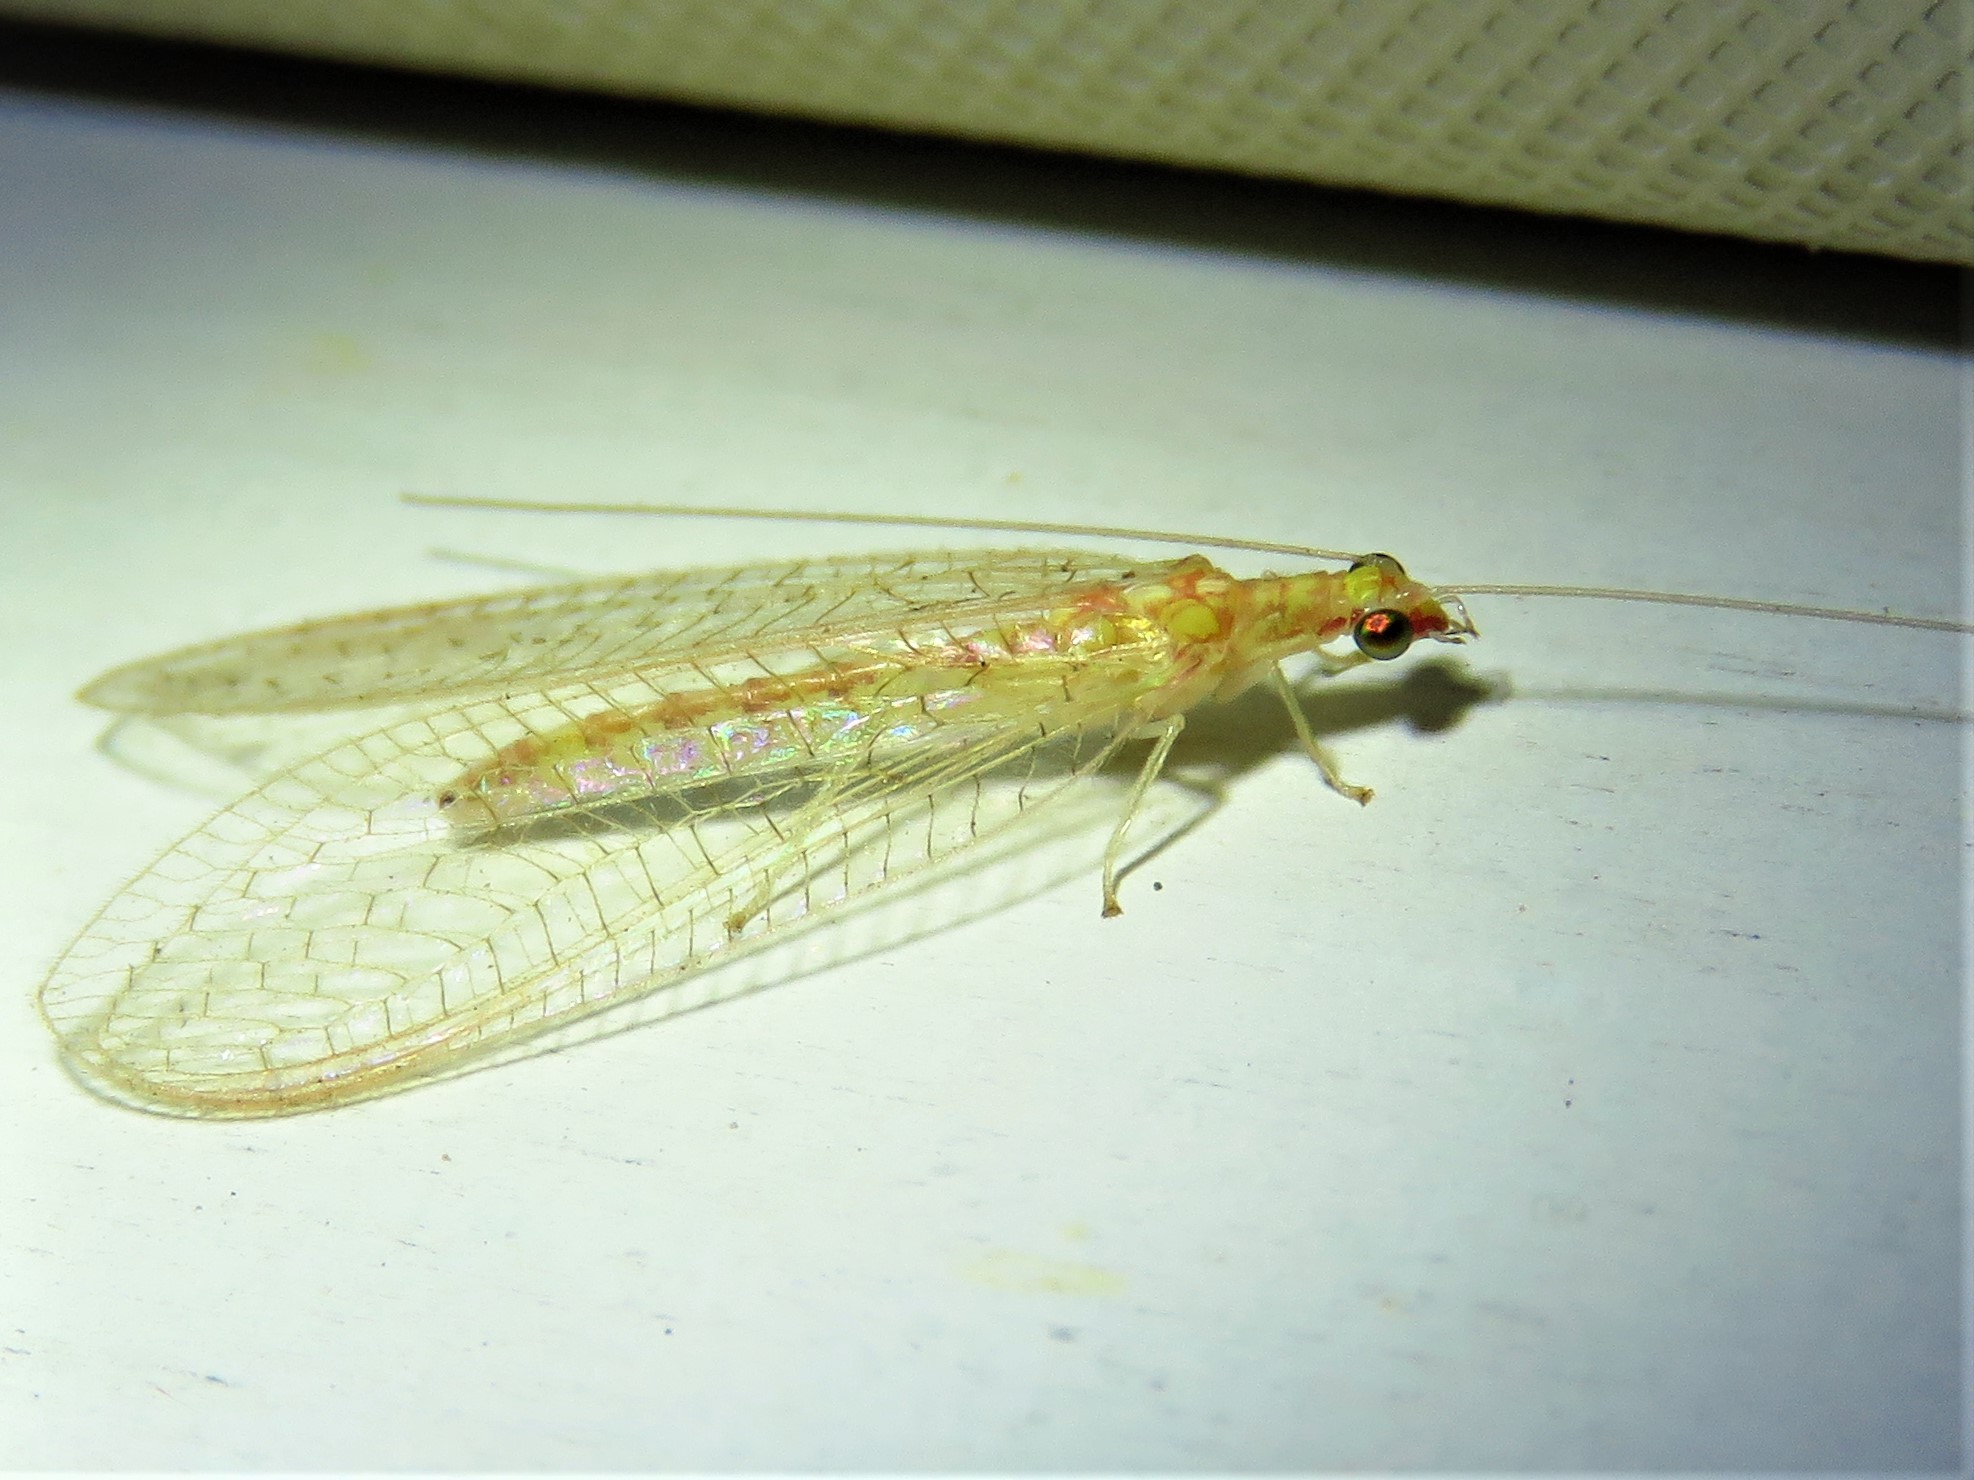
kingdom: Animalia
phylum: Arthropoda
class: Insecta
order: Neuroptera
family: Chrysopidae
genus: Chrysoperla
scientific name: Chrysoperla rufilabris
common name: Red-lipped green lacewing
